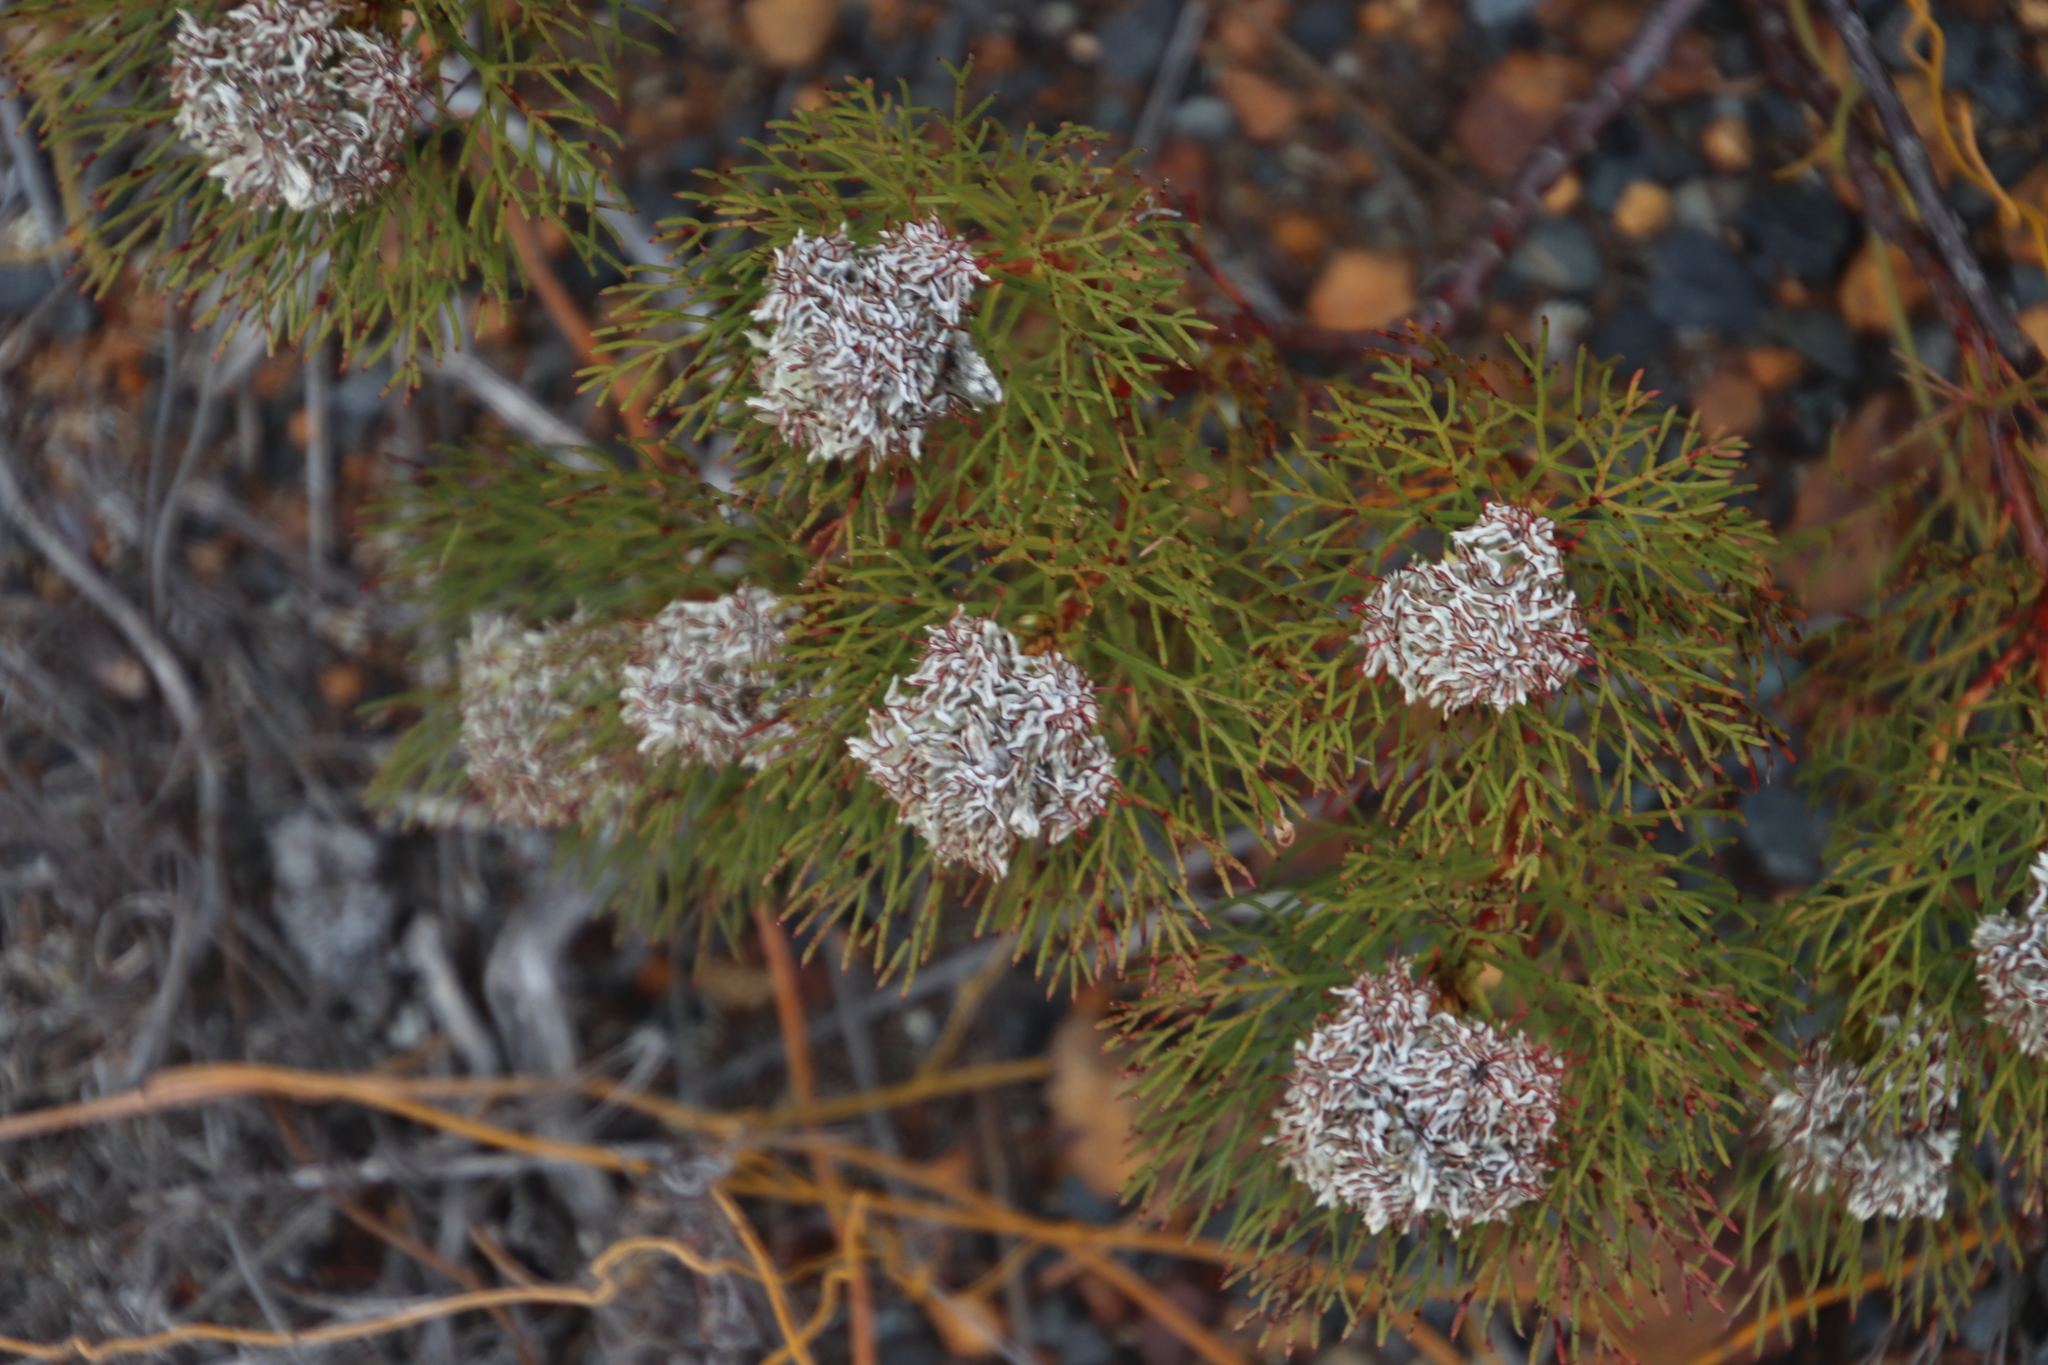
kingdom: Plantae
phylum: Tracheophyta
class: Magnoliopsida
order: Proteales
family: Proteaceae
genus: Serruria
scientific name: Serruria glomerata
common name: Cluster spiderhead
